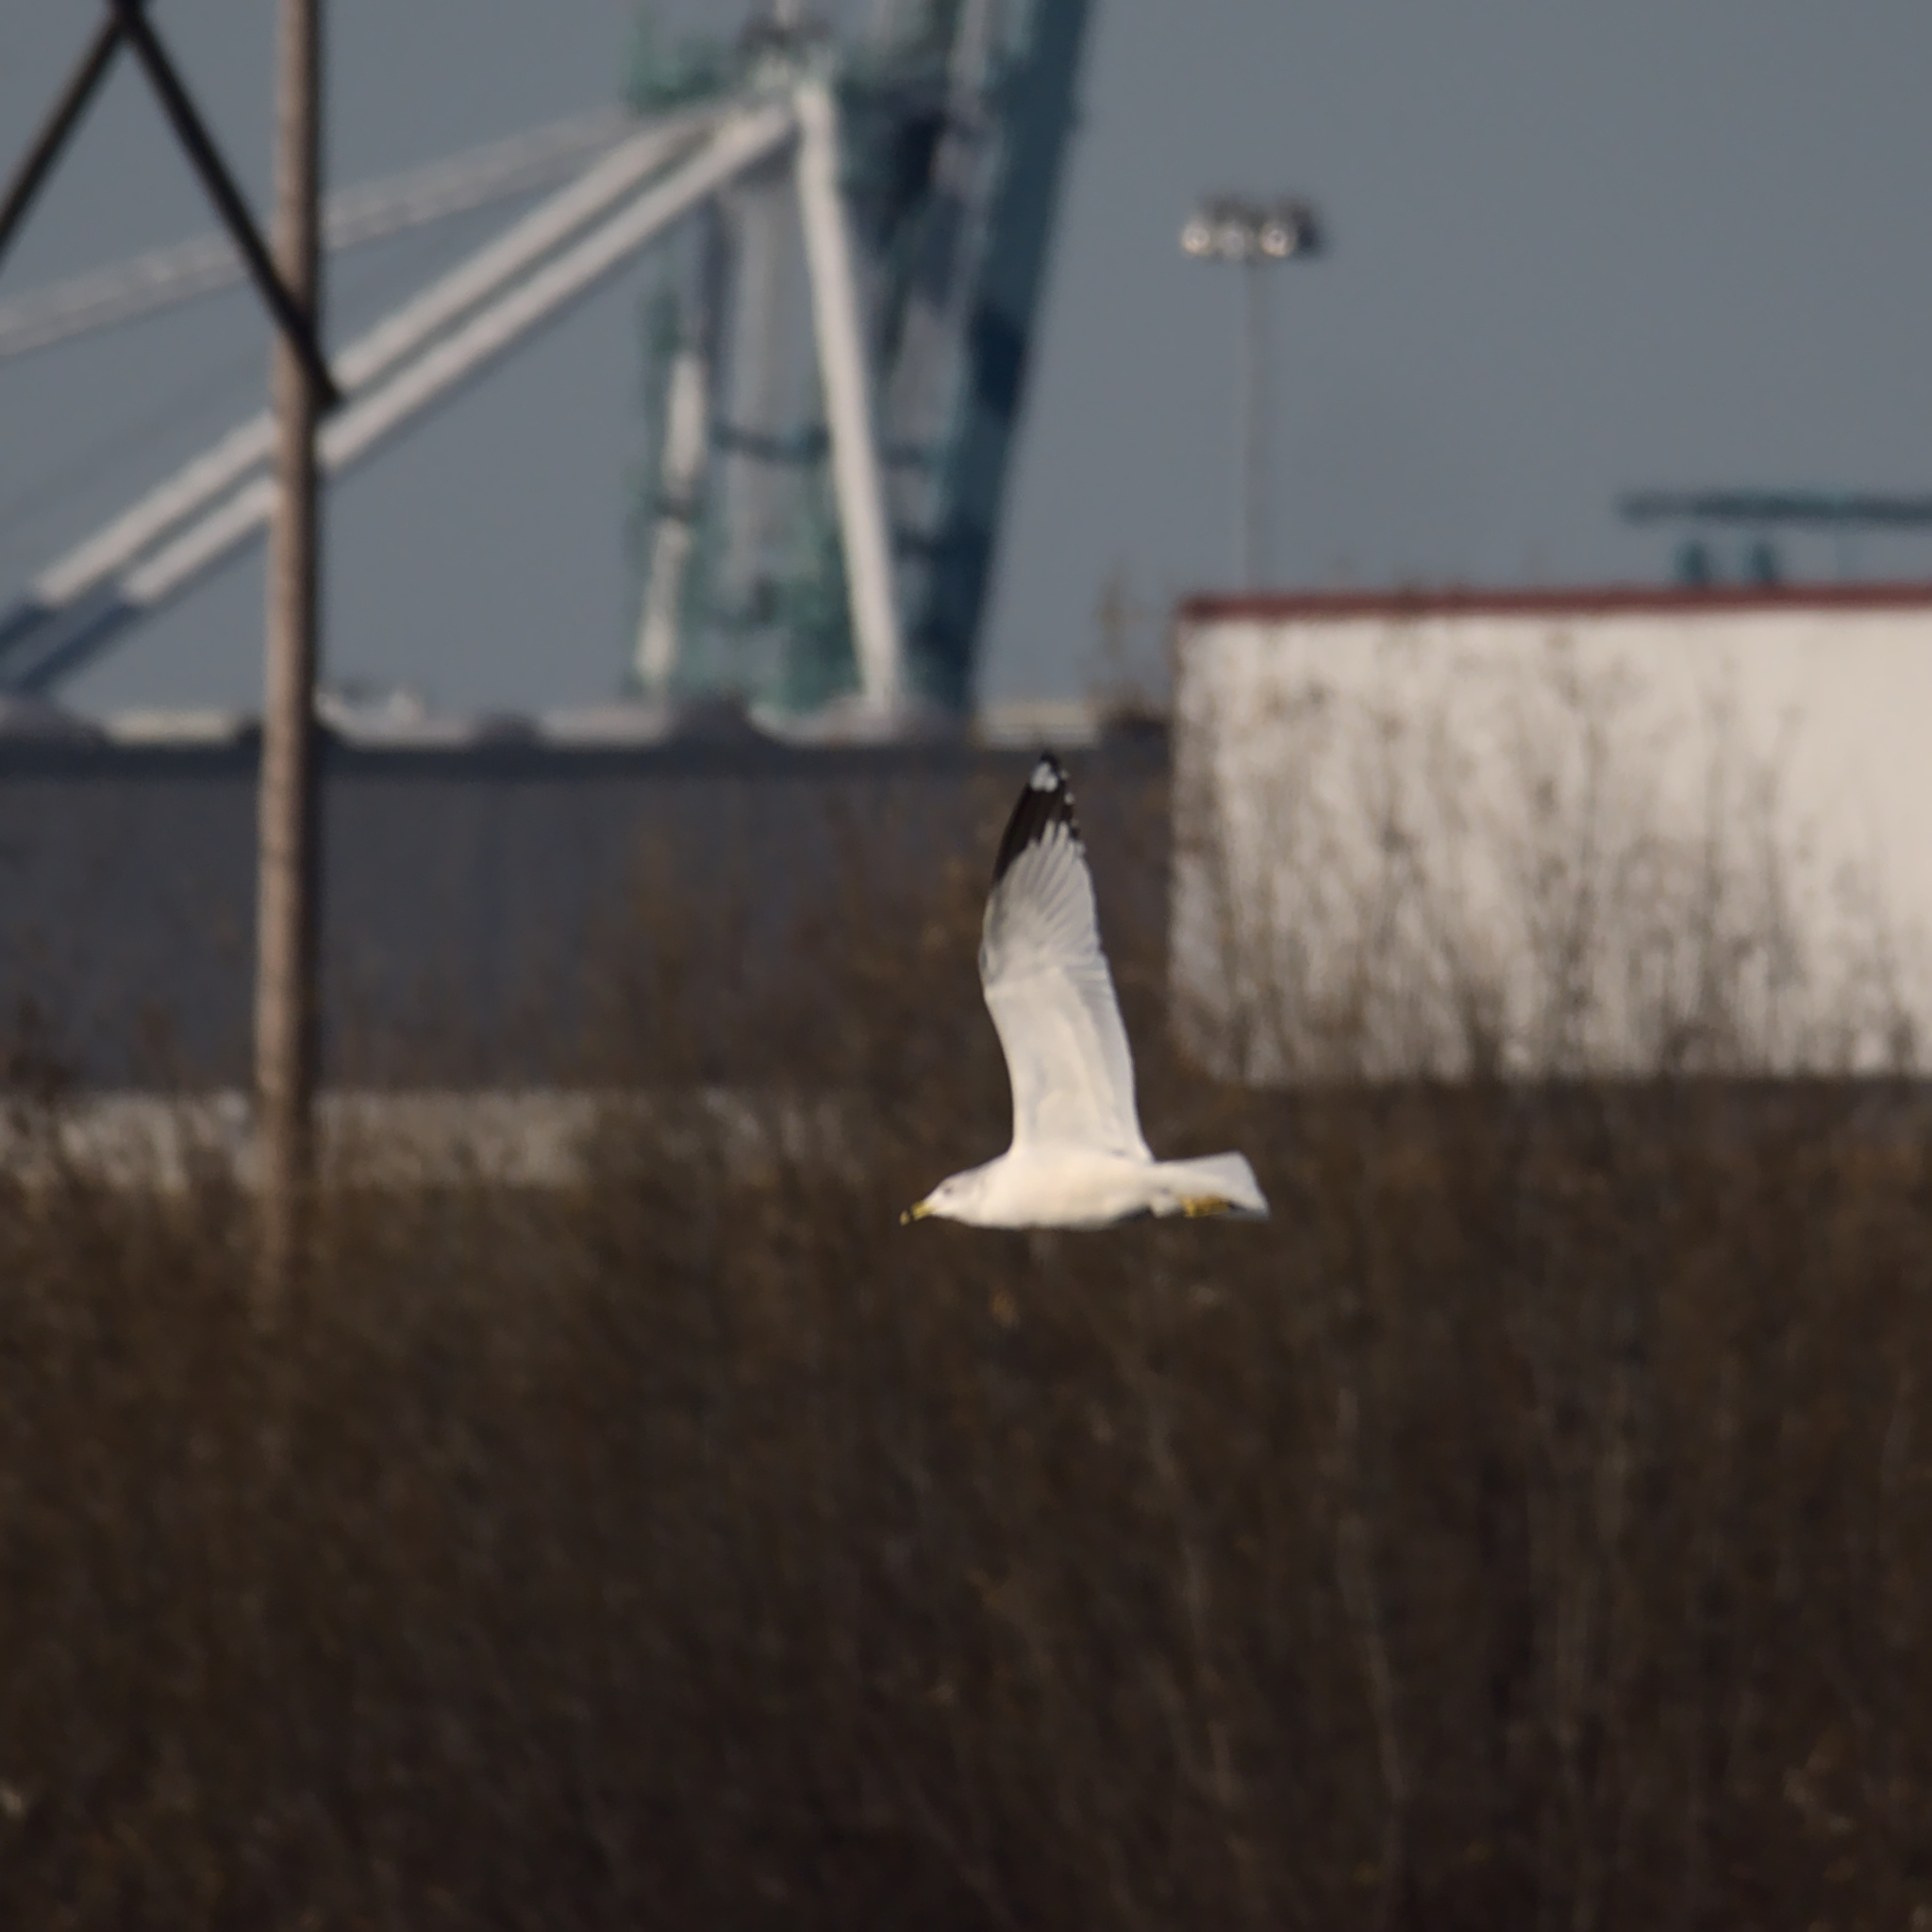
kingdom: Animalia
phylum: Chordata
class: Aves
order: Charadriiformes
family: Laridae
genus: Larus
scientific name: Larus delawarensis
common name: Ring-billed gull
